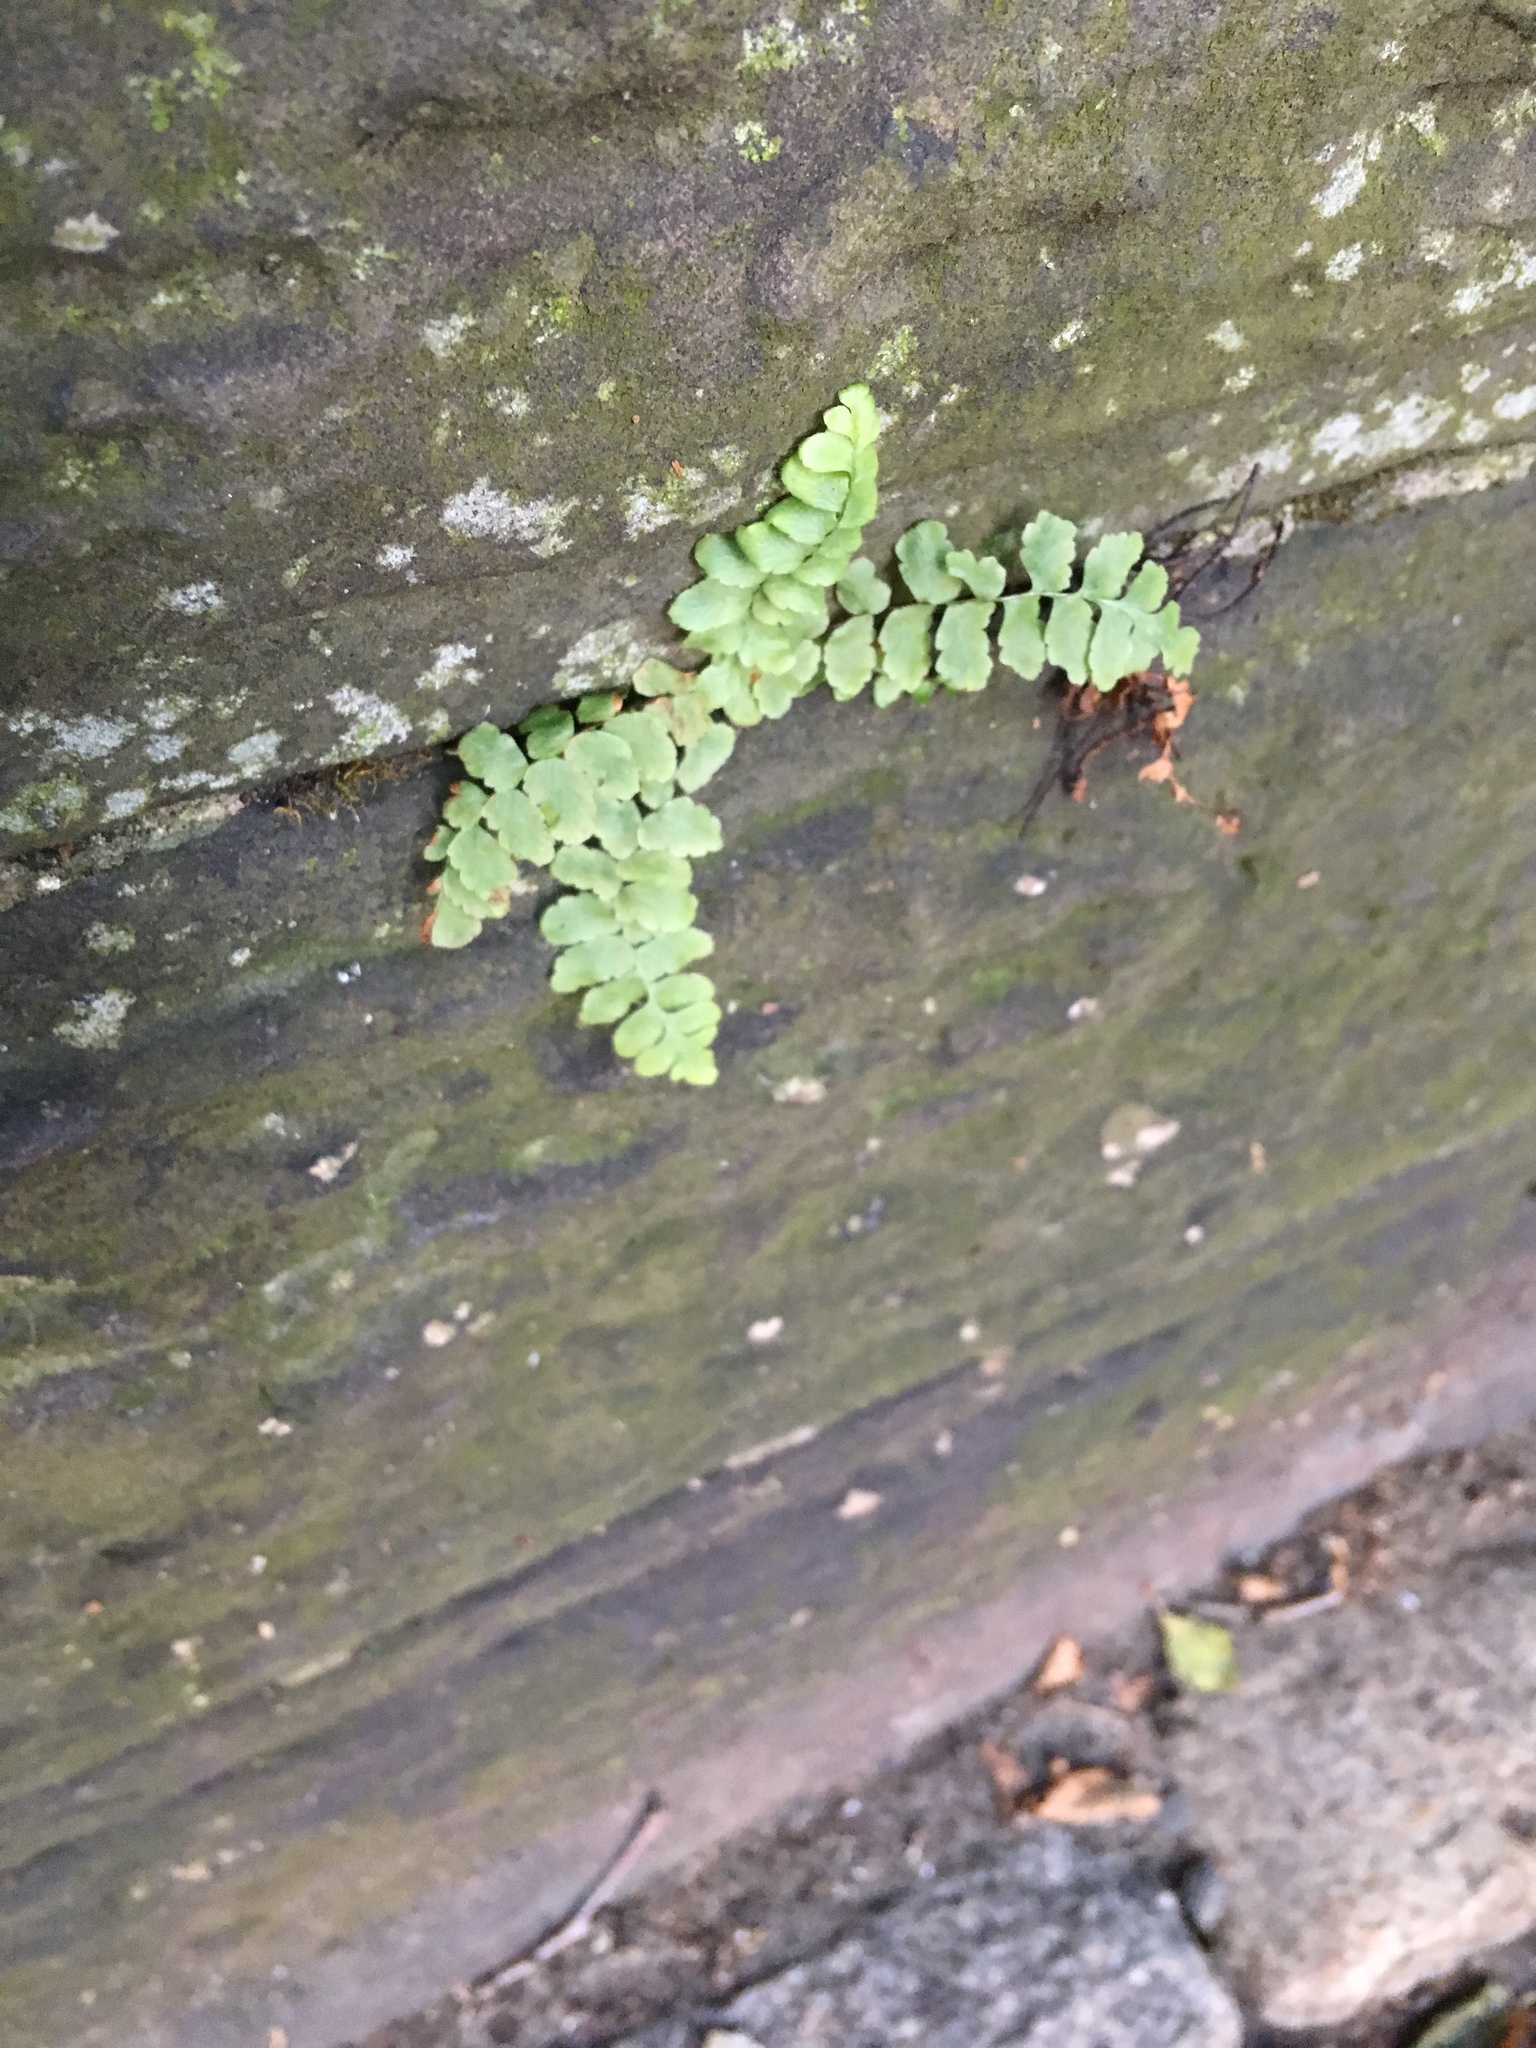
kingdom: Plantae
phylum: Tracheophyta
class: Polypodiopsida
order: Polypodiales
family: Aspleniaceae
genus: Asplenium
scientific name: Asplenium platyneuron
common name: Ebony spleenwort
